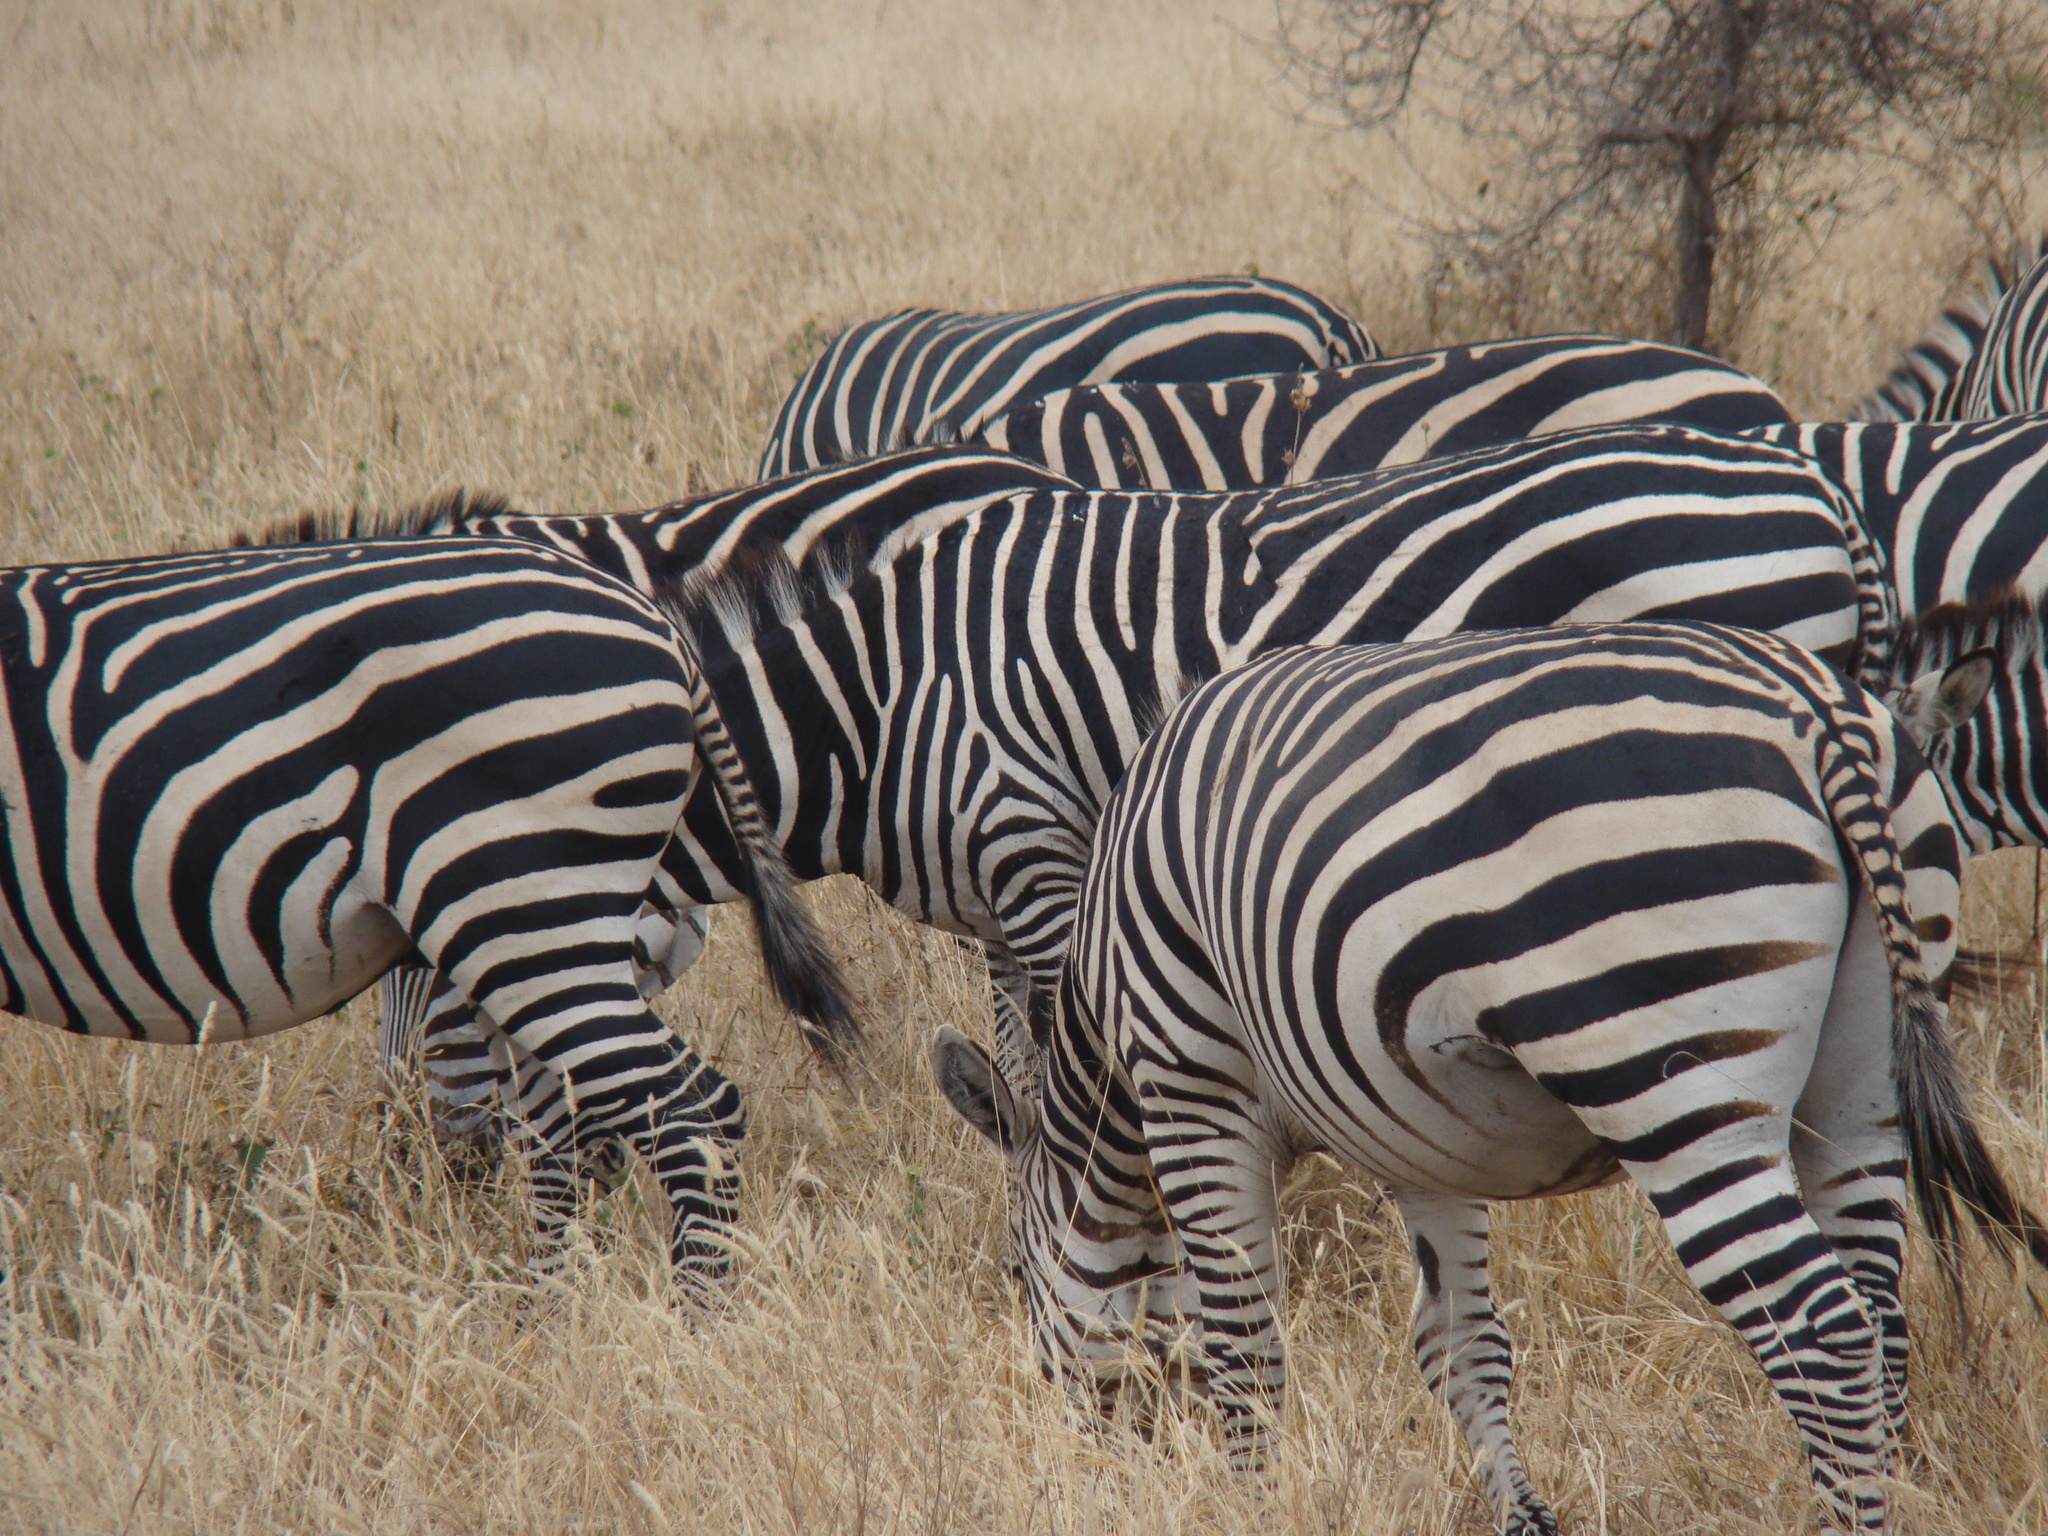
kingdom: Animalia
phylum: Chordata
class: Mammalia
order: Perissodactyla
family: Equidae
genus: Equus
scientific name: Equus quagga
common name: Plains zebra
